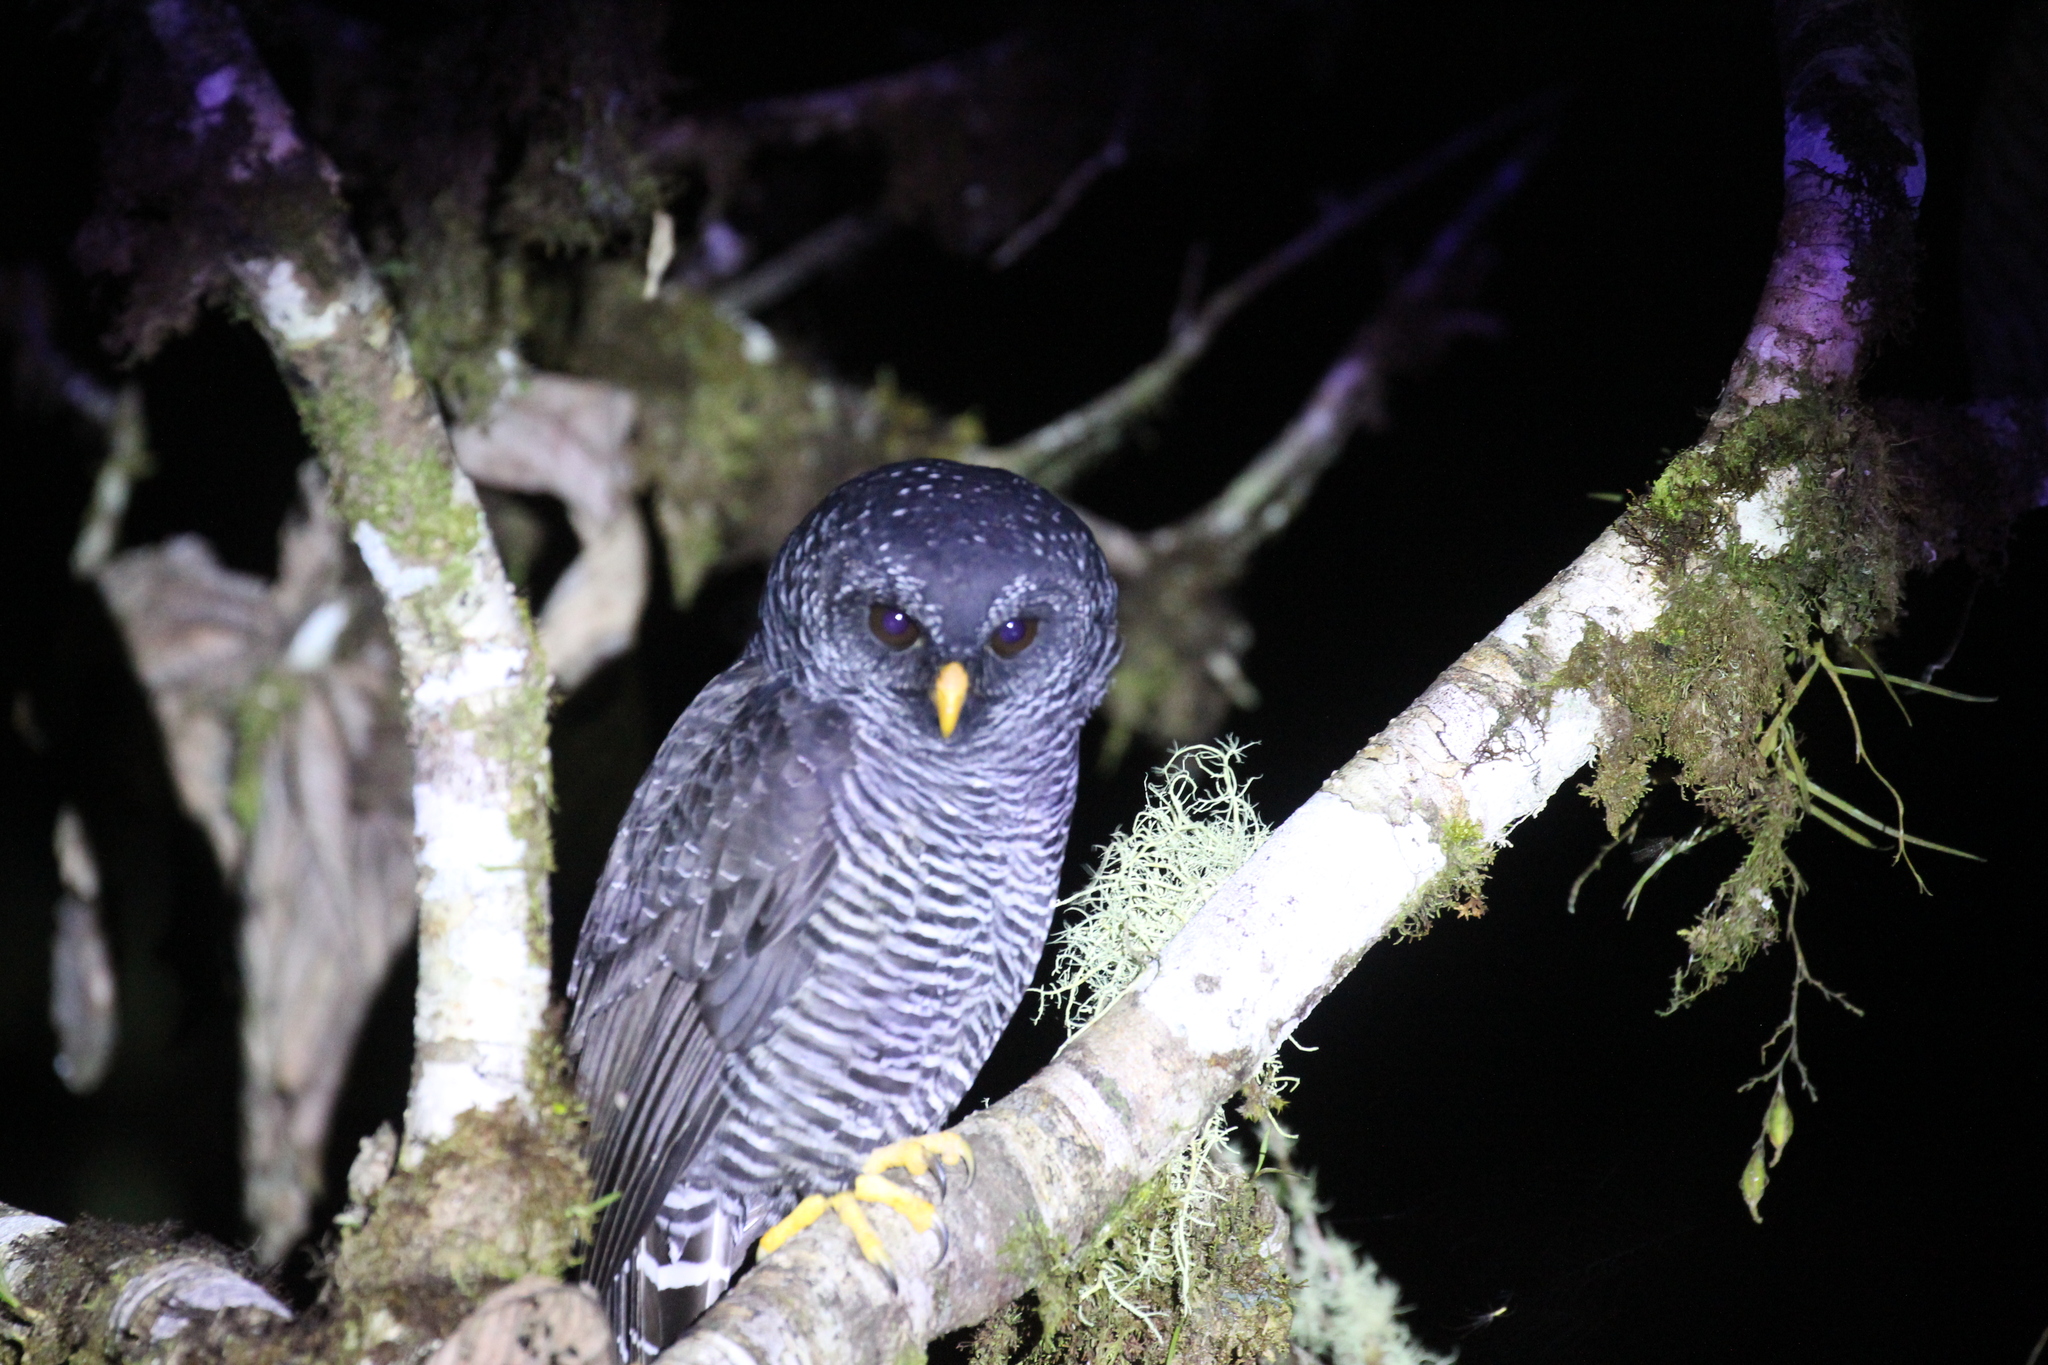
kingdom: Animalia
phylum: Chordata
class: Aves
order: Strigiformes
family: Strigidae
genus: Strix
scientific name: Strix huhula
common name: Black-banded owl
